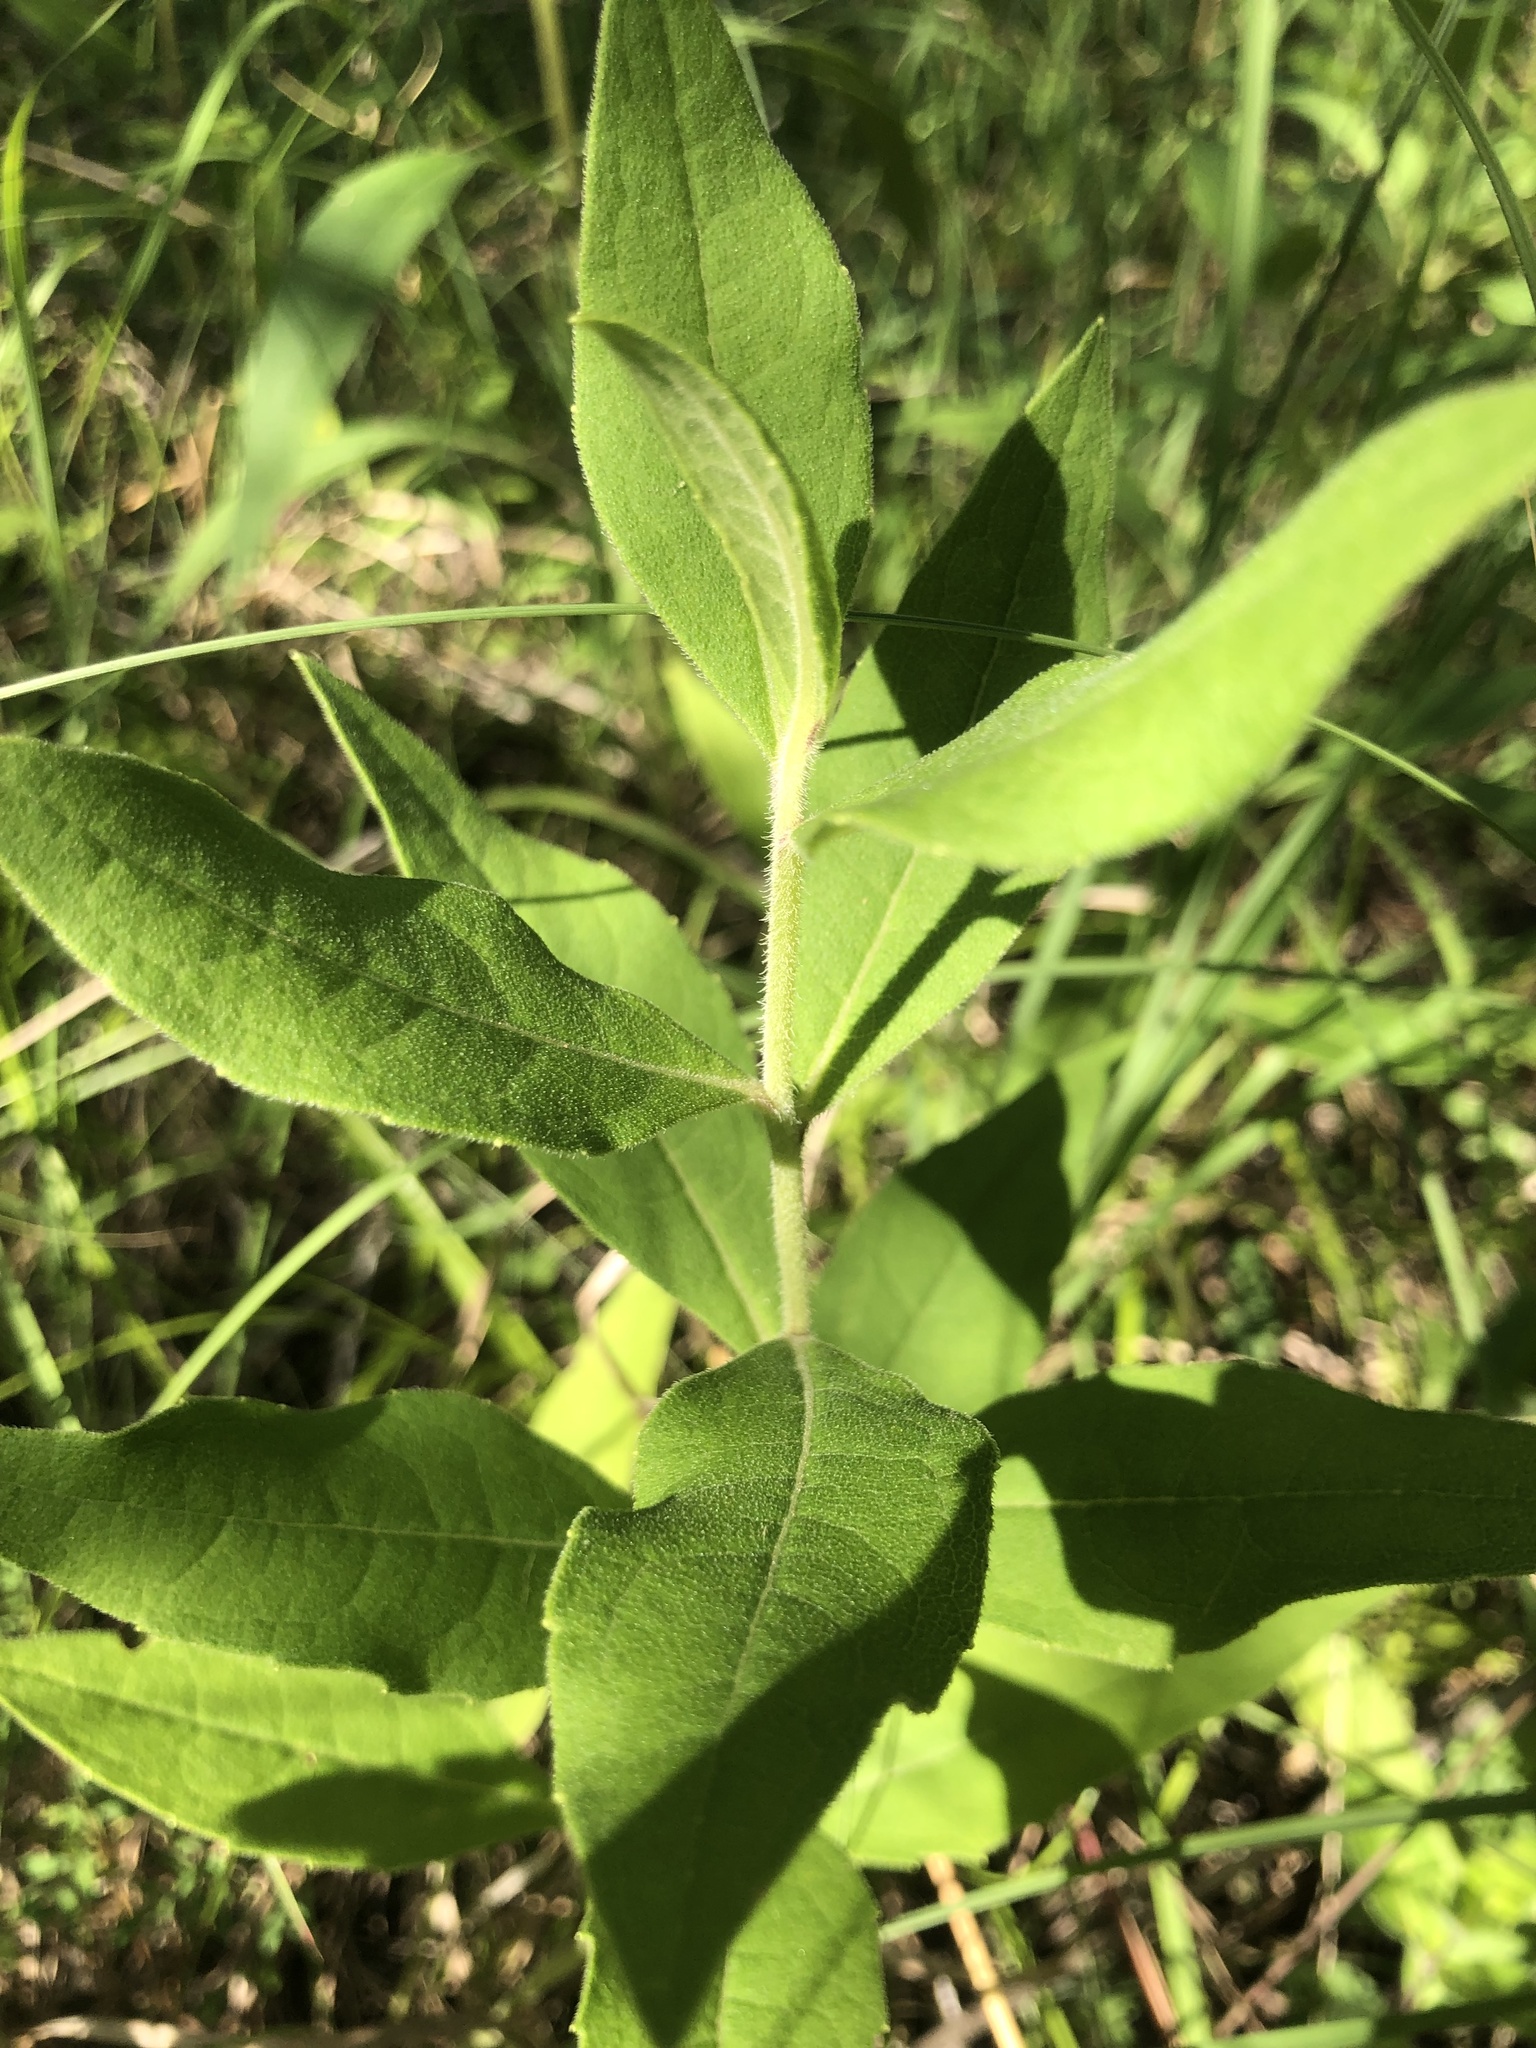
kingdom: Plantae
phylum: Tracheophyta
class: Magnoliopsida
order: Asterales
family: Asteraceae
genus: Silphium
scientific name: Silphium radula
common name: Roughleaf rosinweed
